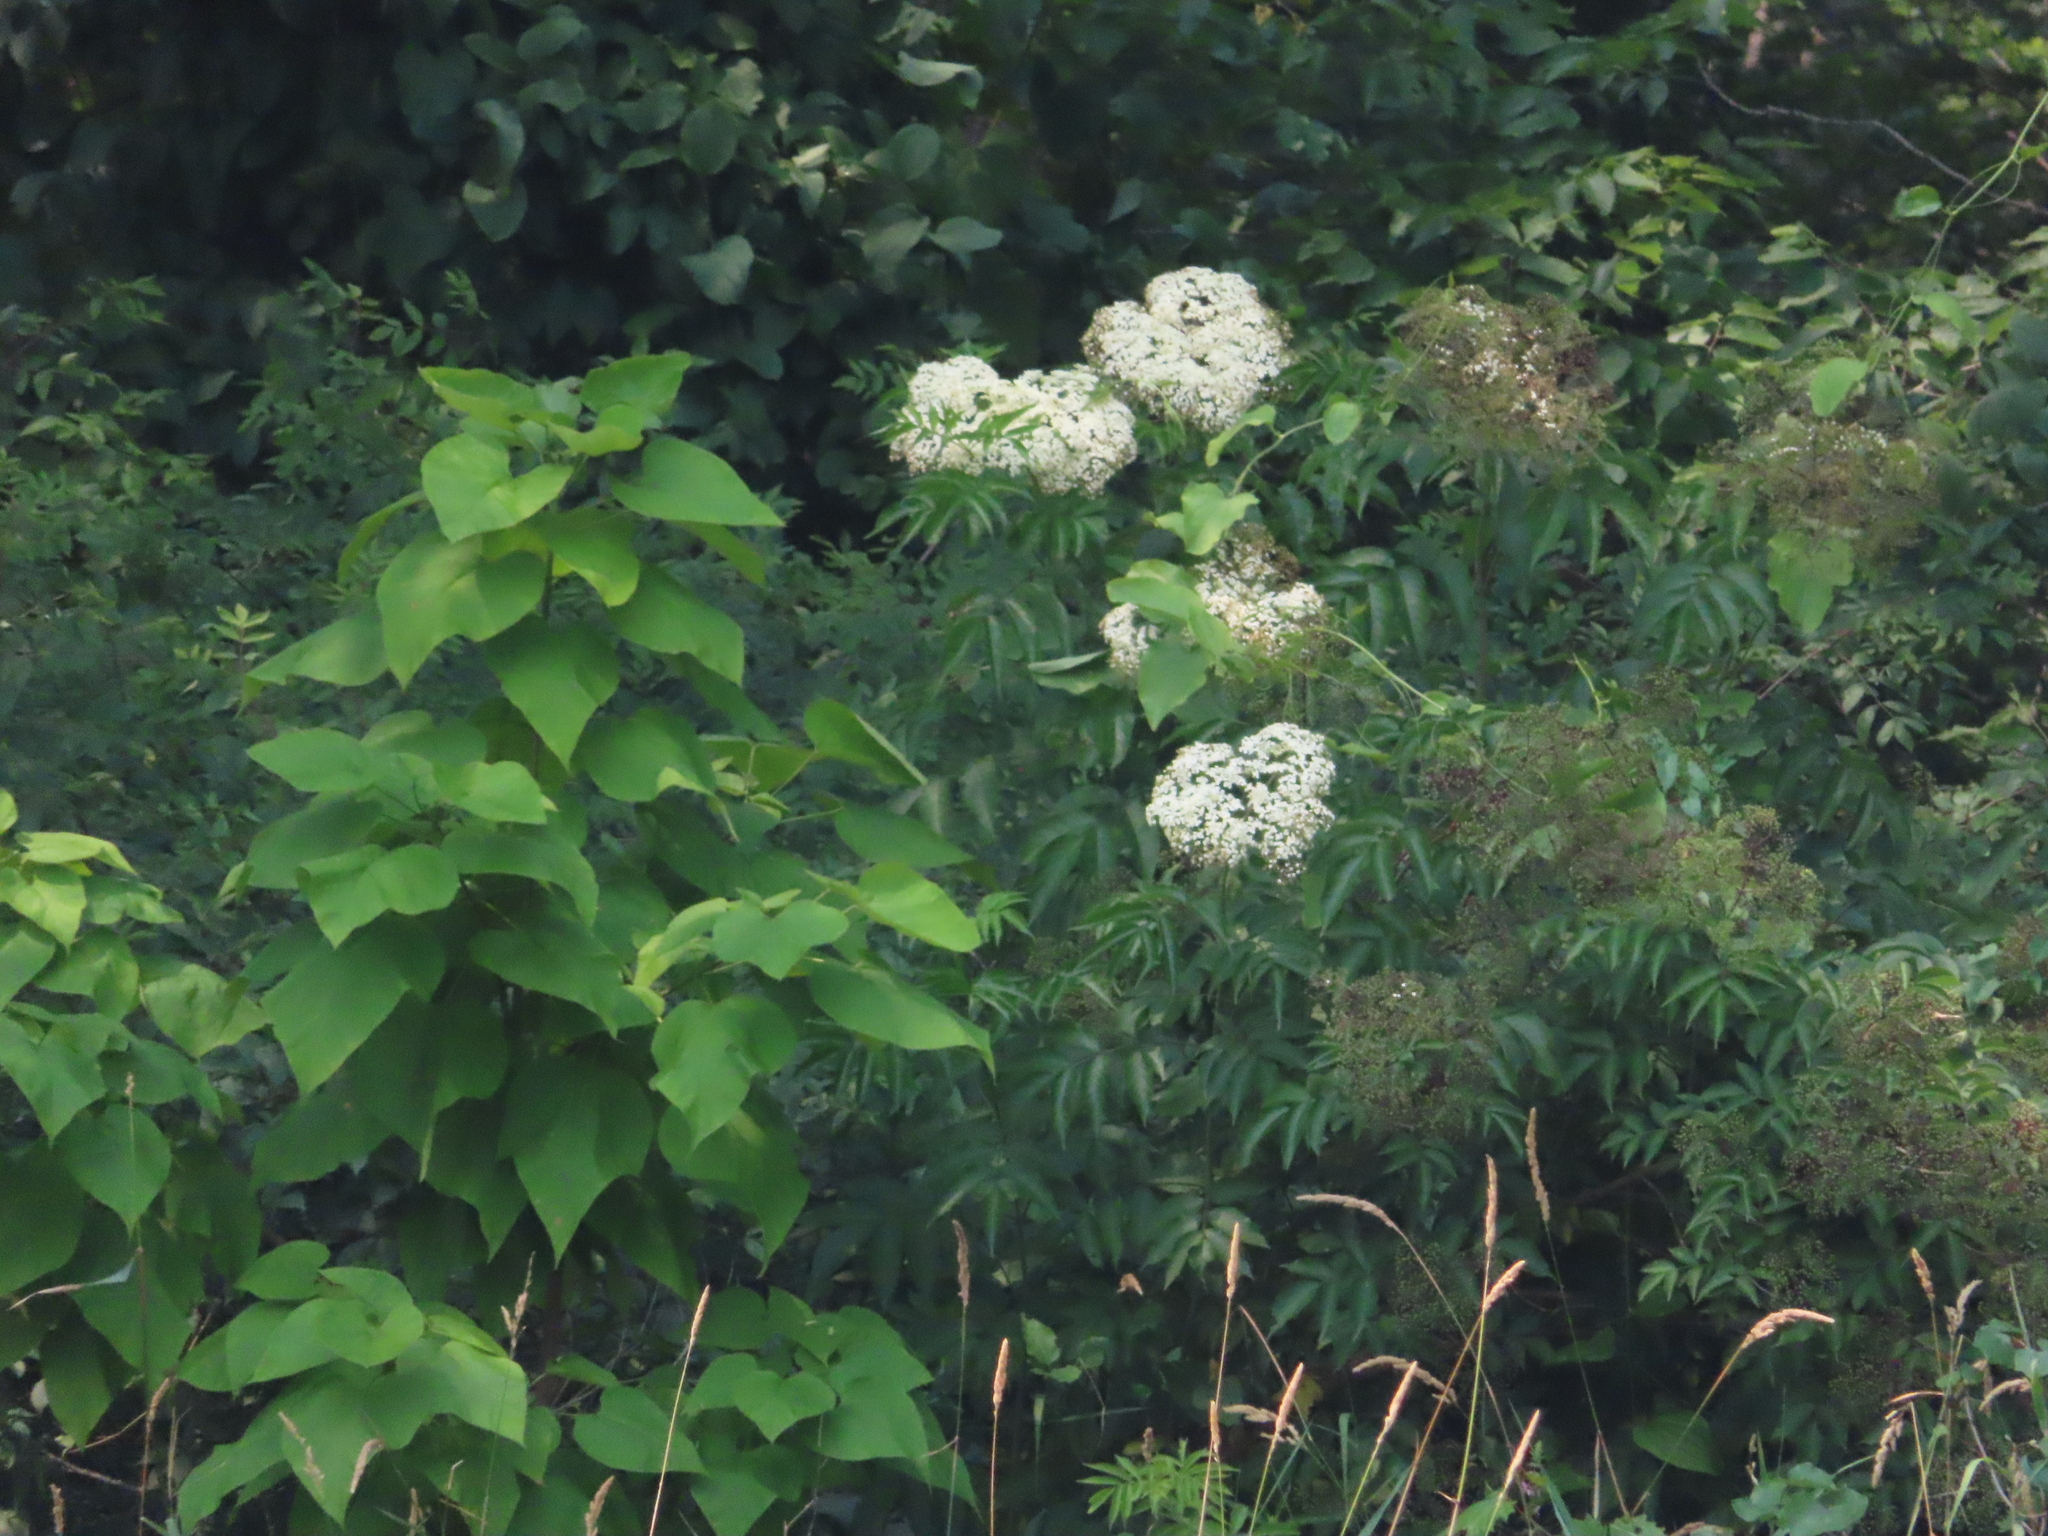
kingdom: Plantae
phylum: Tracheophyta
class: Magnoliopsida
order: Dipsacales
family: Viburnaceae
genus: Sambucus
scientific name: Sambucus canadensis
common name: American elder
